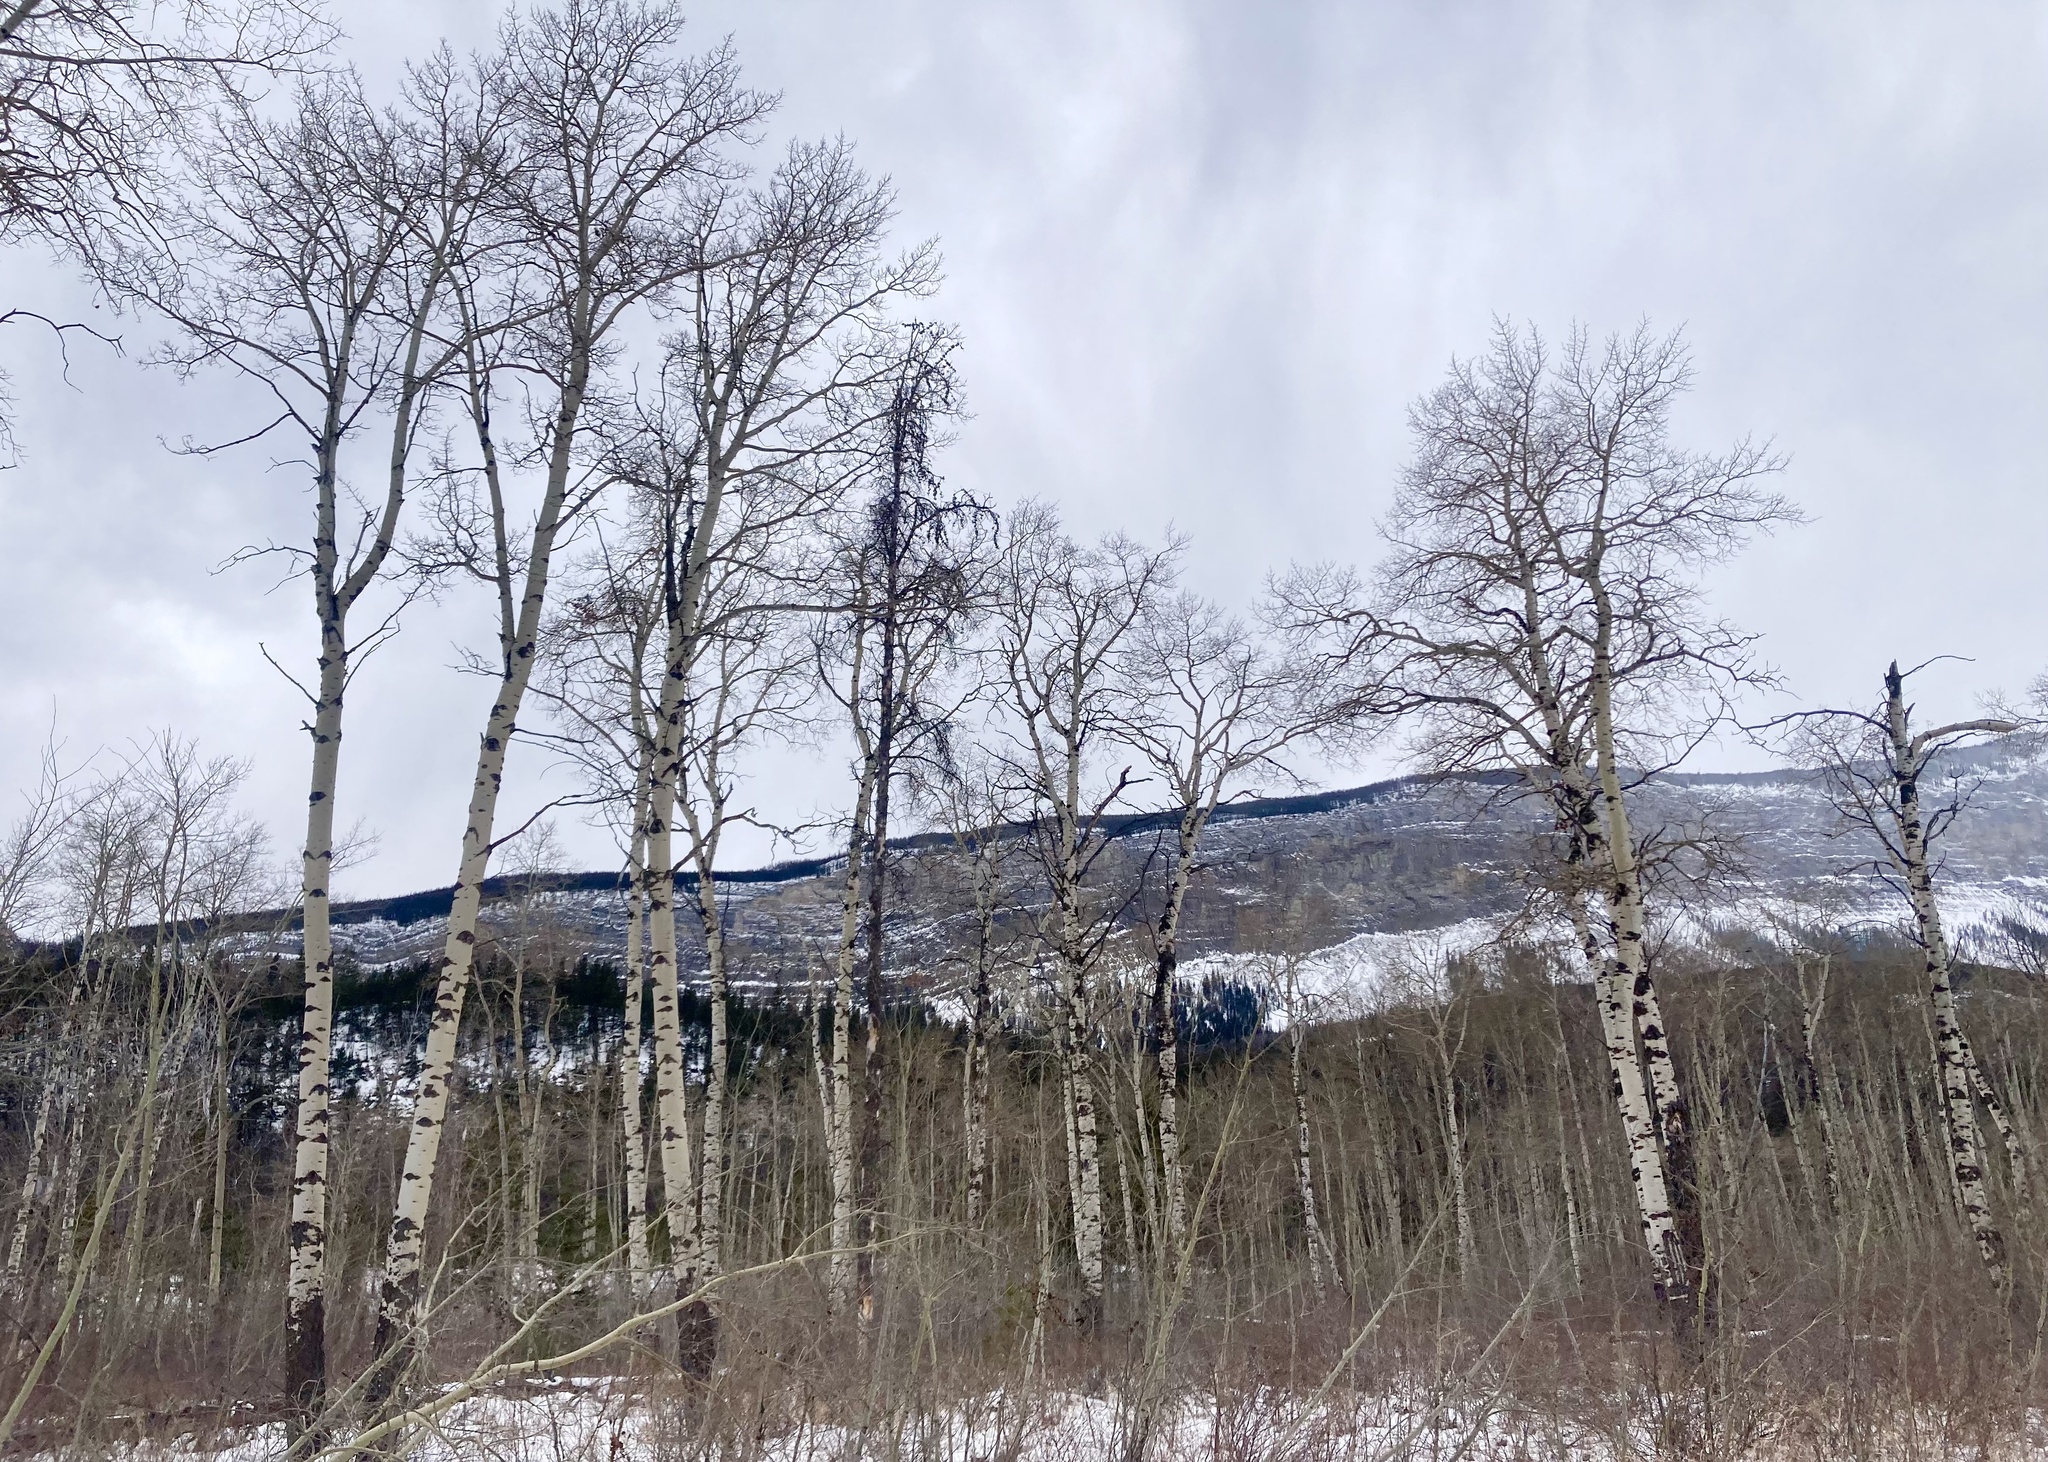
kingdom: Plantae
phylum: Tracheophyta
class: Magnoliopsida
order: Malpighiales
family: Salicaceae
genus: Populus
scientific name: Populus tremuloides
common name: Quaking aspen
